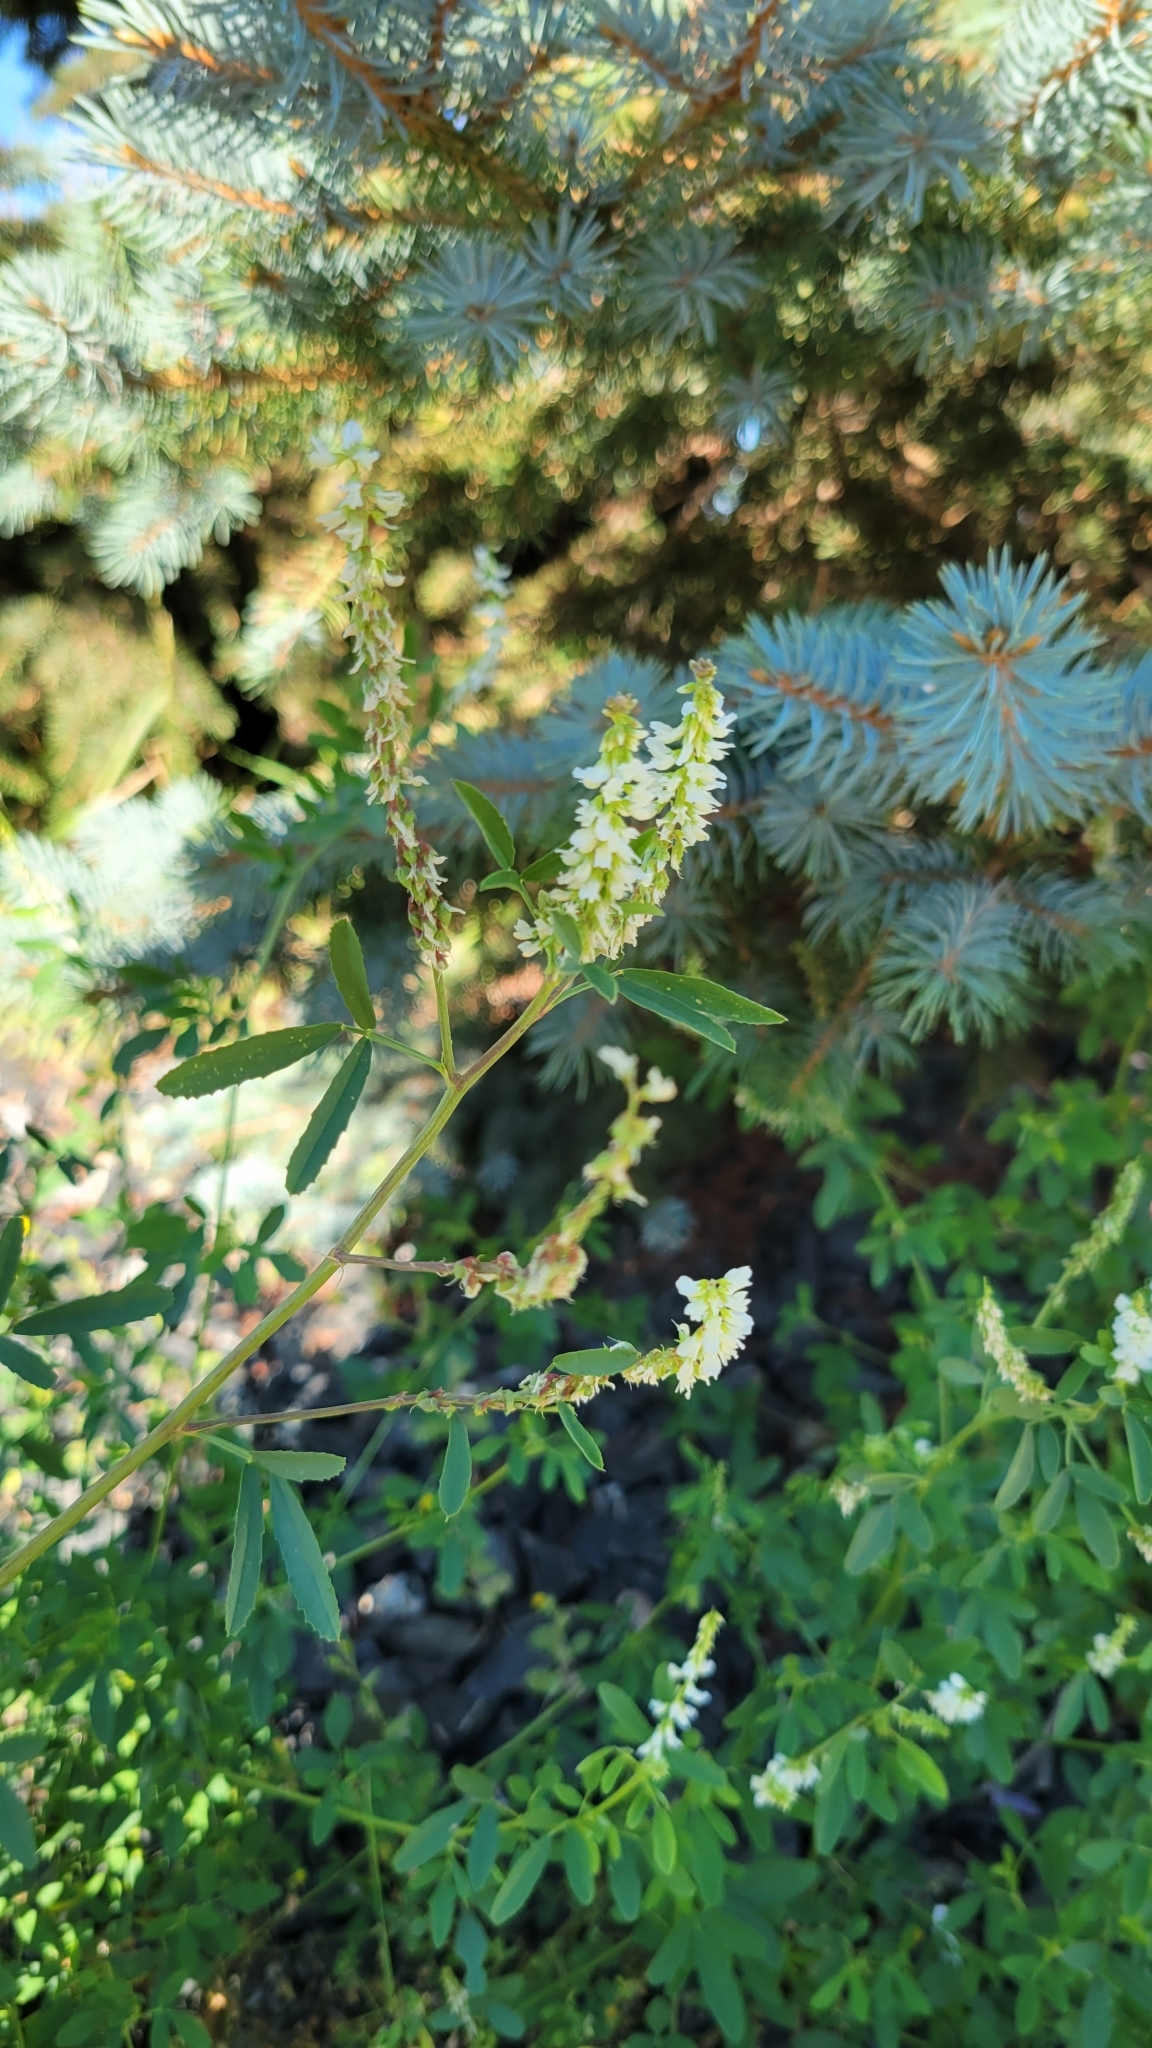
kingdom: Plantae
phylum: Tracheophyta
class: Magnoliopsida
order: Fabales
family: Fabaceae
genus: Melilotus
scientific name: Melilotus albus
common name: White melilot
